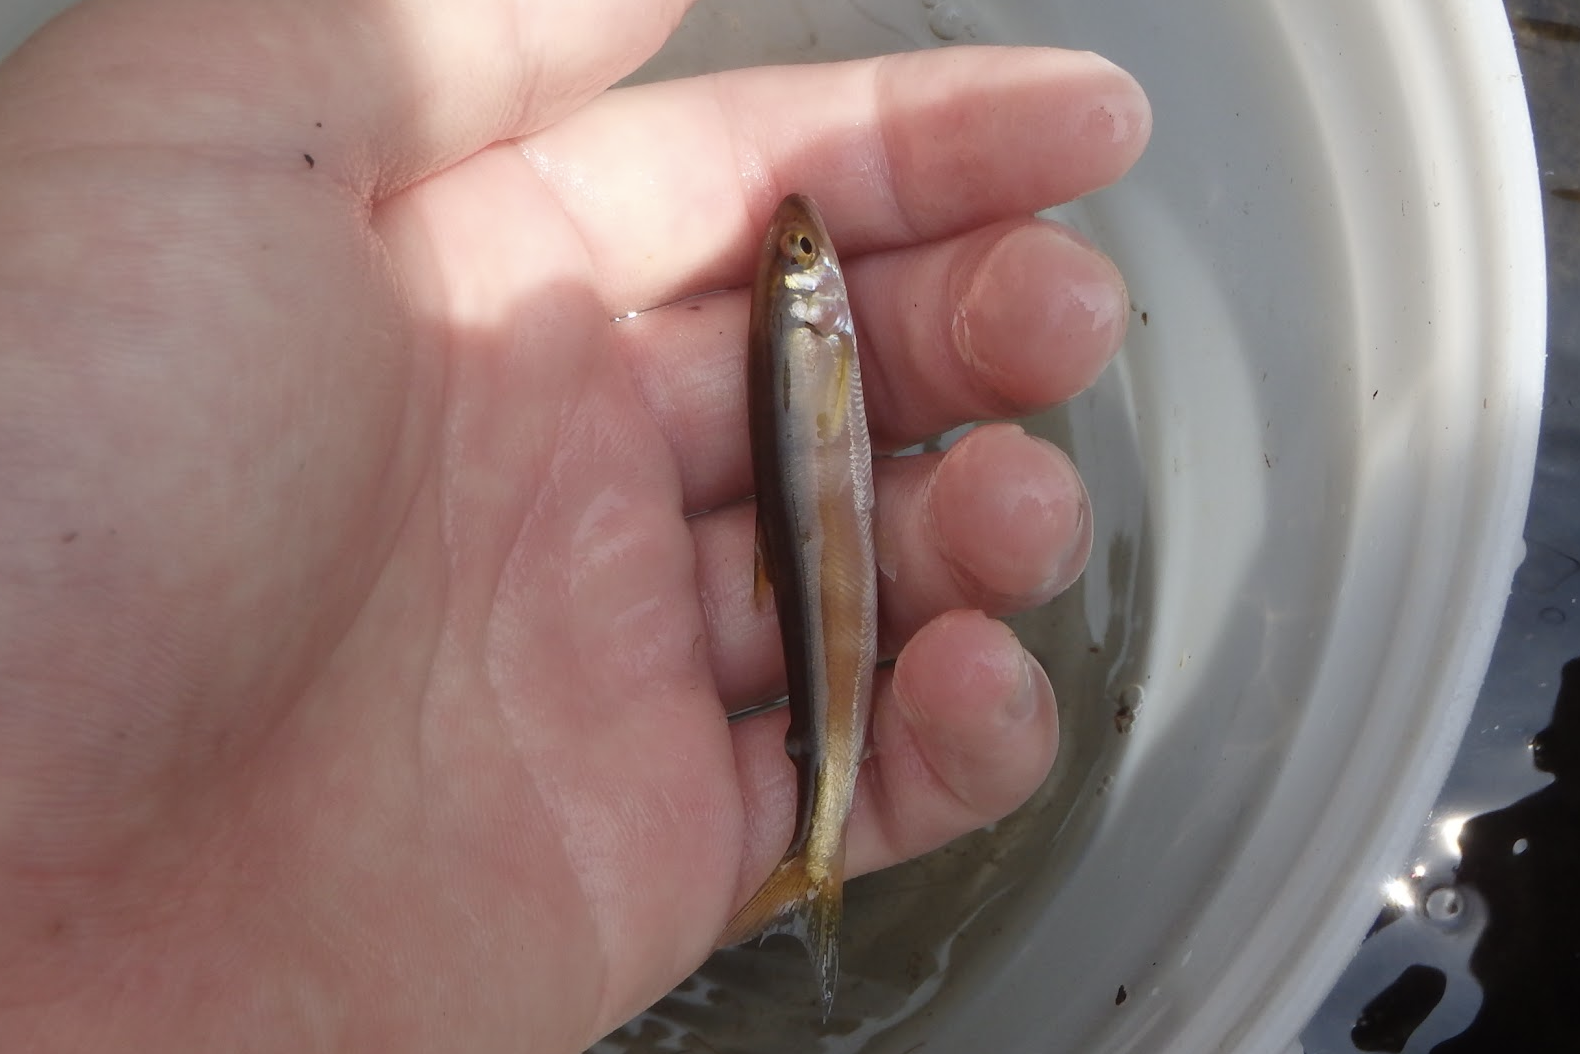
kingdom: Animalia
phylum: Chordata
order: Osmeriformes
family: Plecoglossidae
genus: Plecoglossus
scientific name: Plecoglossus altivelis
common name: Ayu sweetfish
